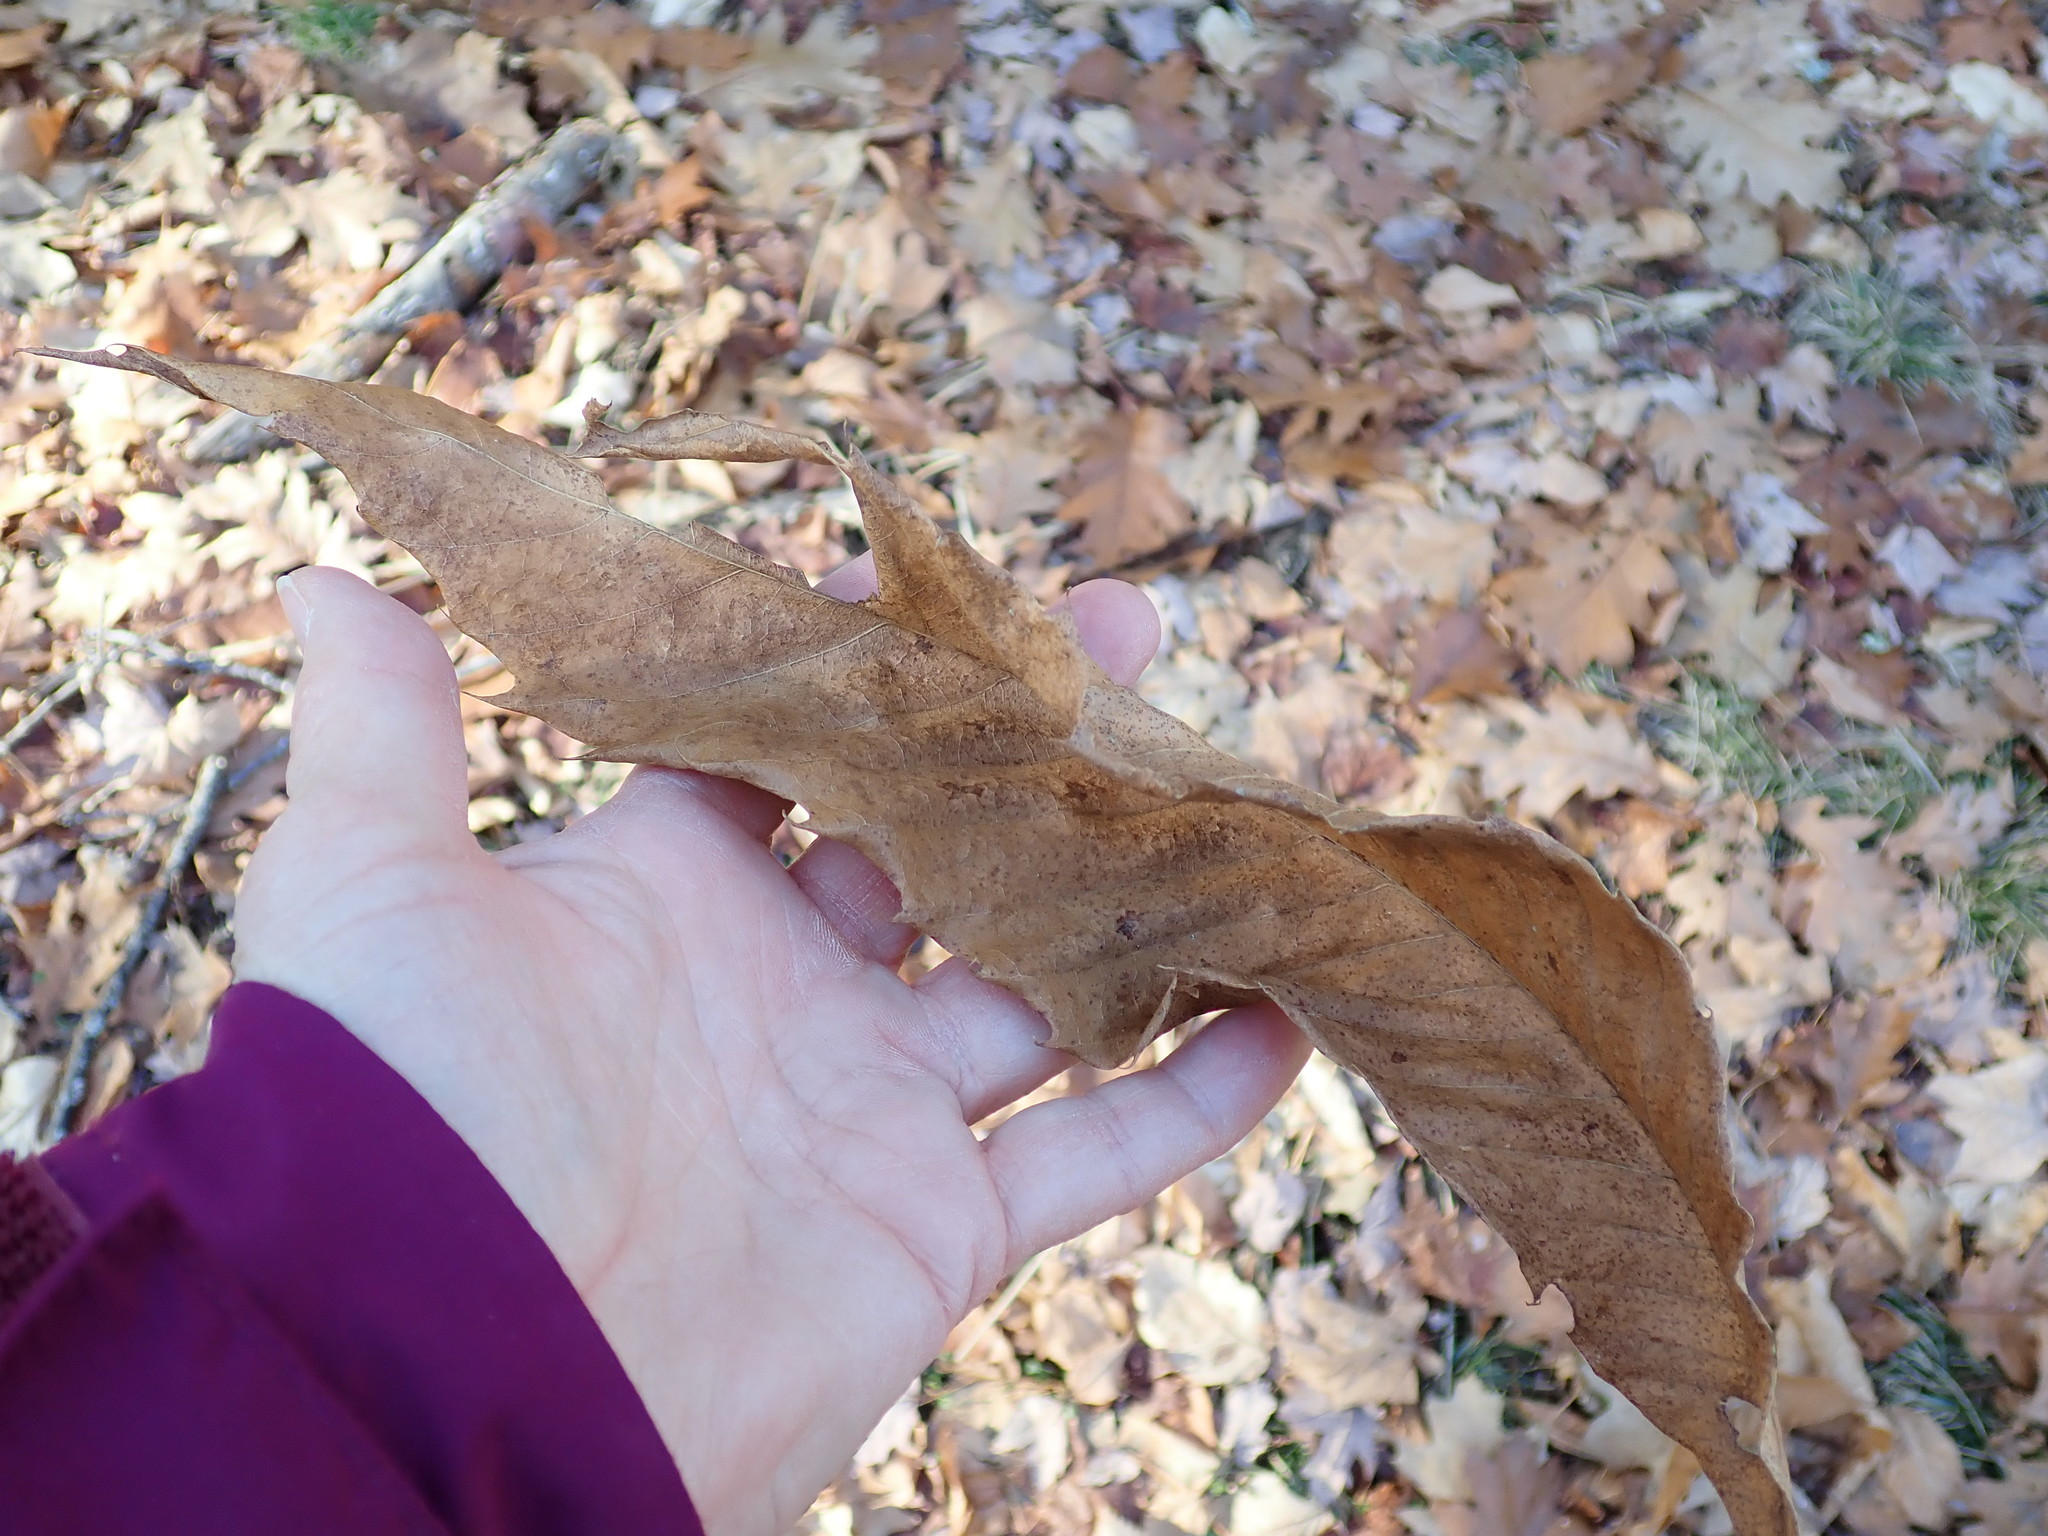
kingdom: Plantae
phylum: Tracheophyta
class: Magnoliopsida
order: Fagales
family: Fagaceae
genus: Castanea
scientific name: Castanea dentata
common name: American chestnut
